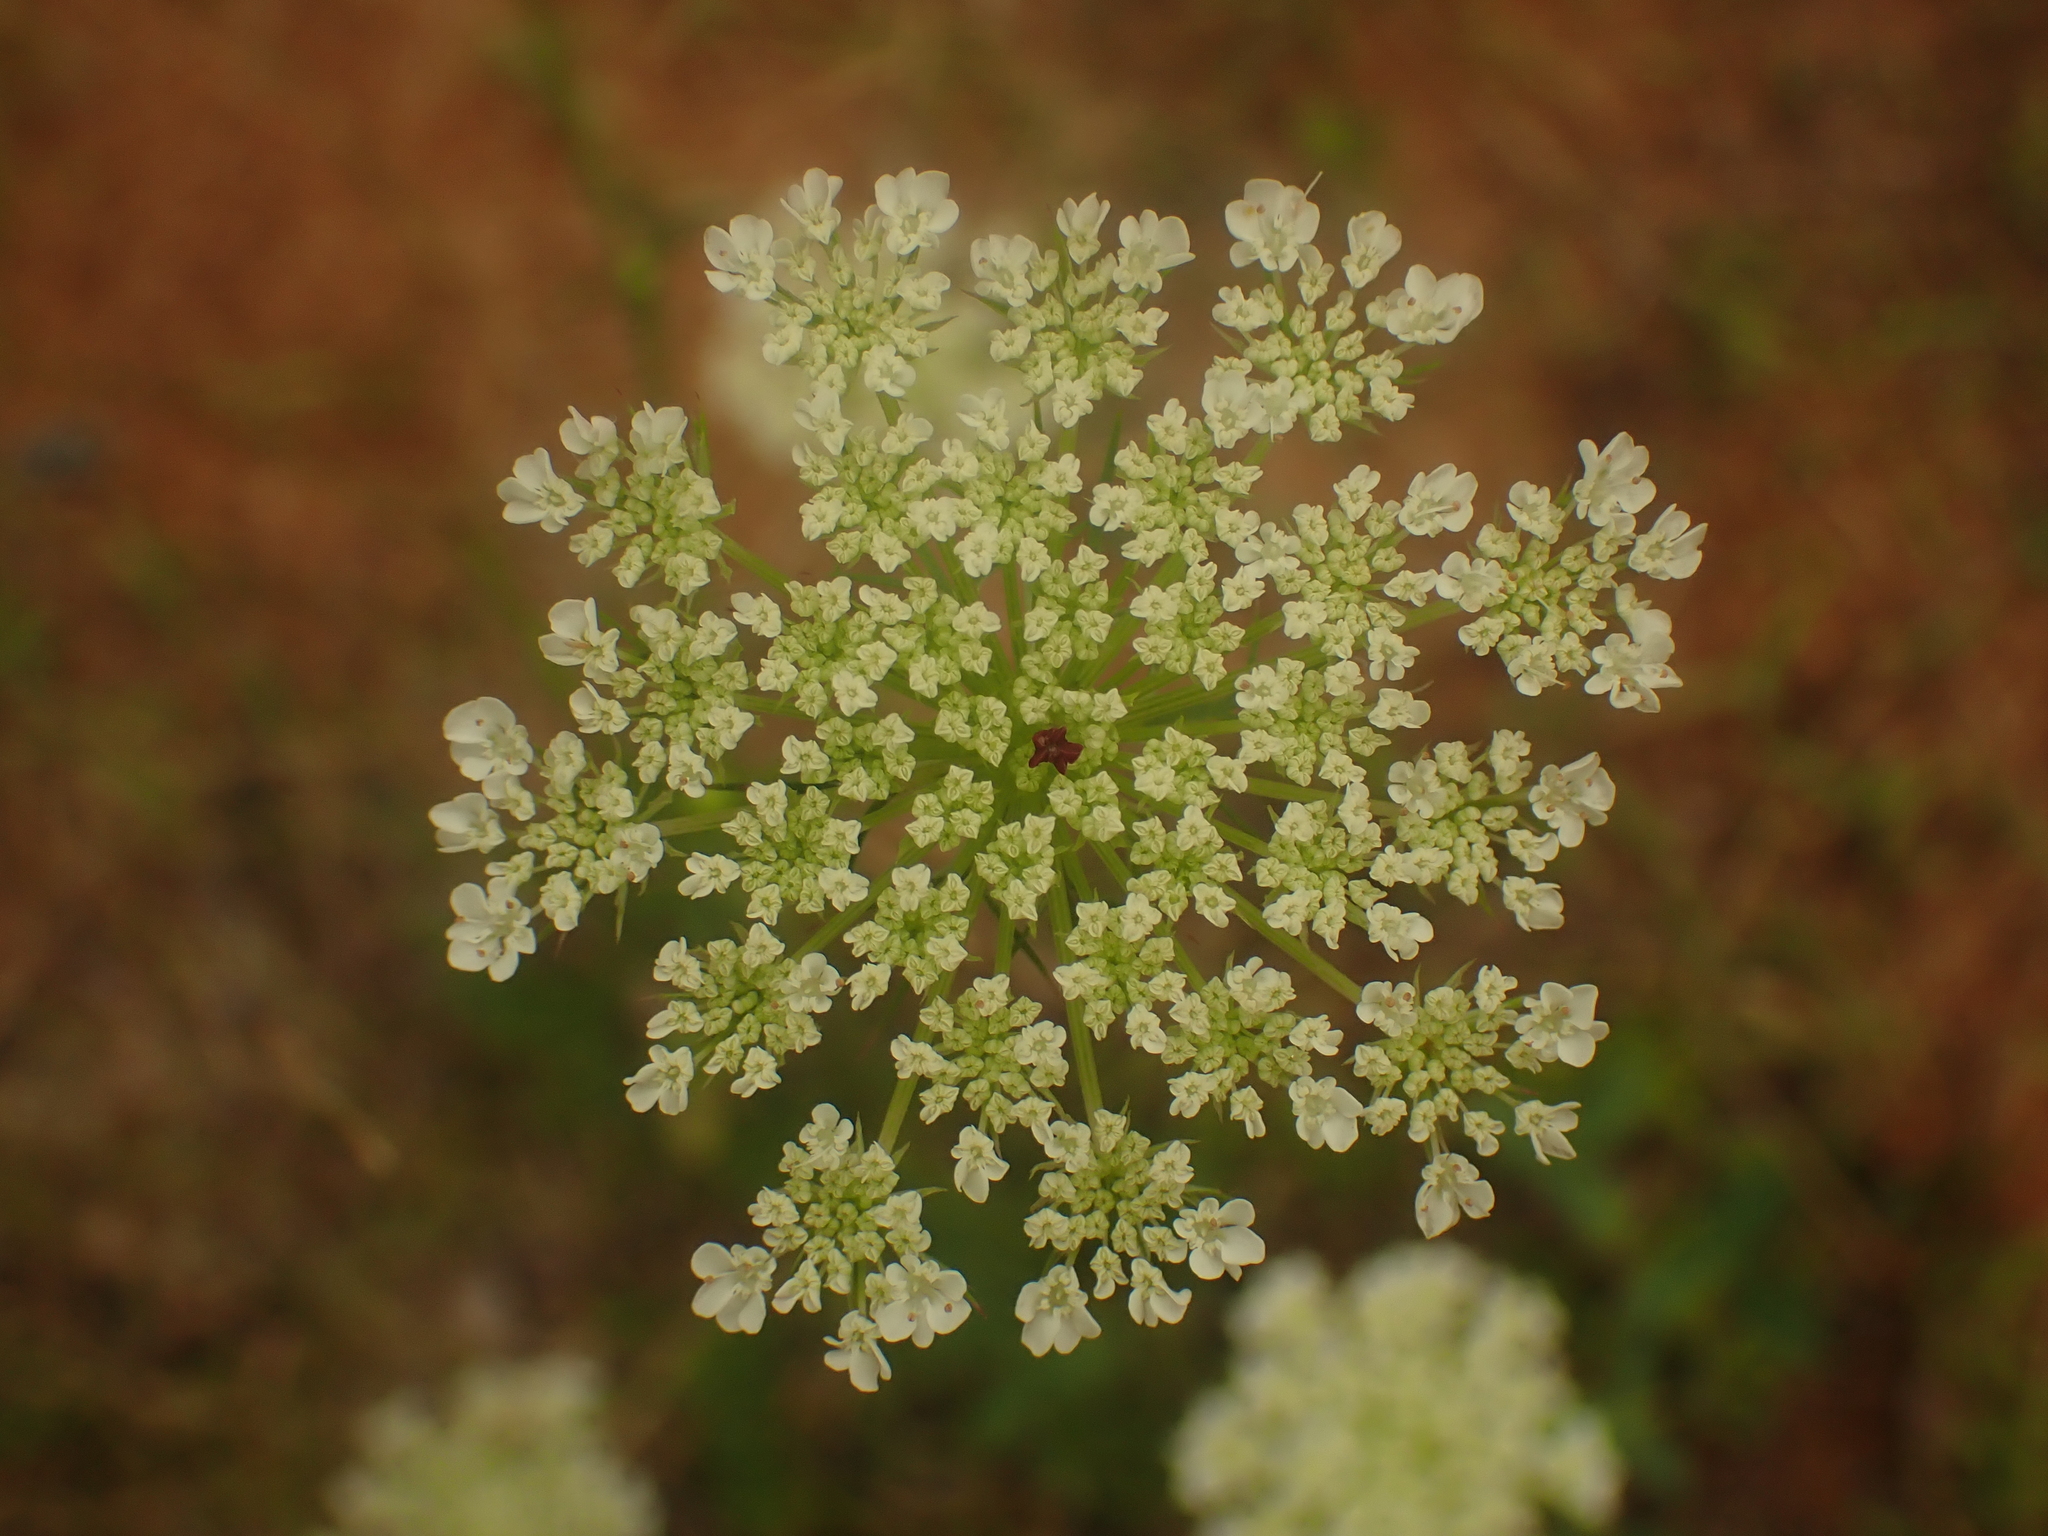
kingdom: Plantae
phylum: Tracheophyta
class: Magnoliopsida
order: Apiales
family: Apiaceae
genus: Daucus
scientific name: Daucus carota
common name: Wild carrot
